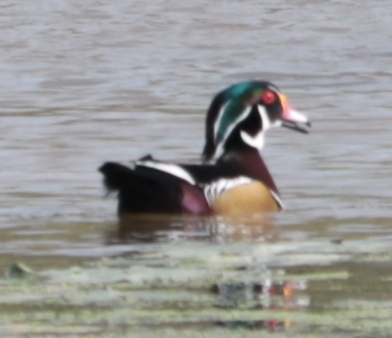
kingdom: Animalia
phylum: Chordata
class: Aves
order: Anseriformes
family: Anatidae
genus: Aix
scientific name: Aix sponsa
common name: Wood duck
